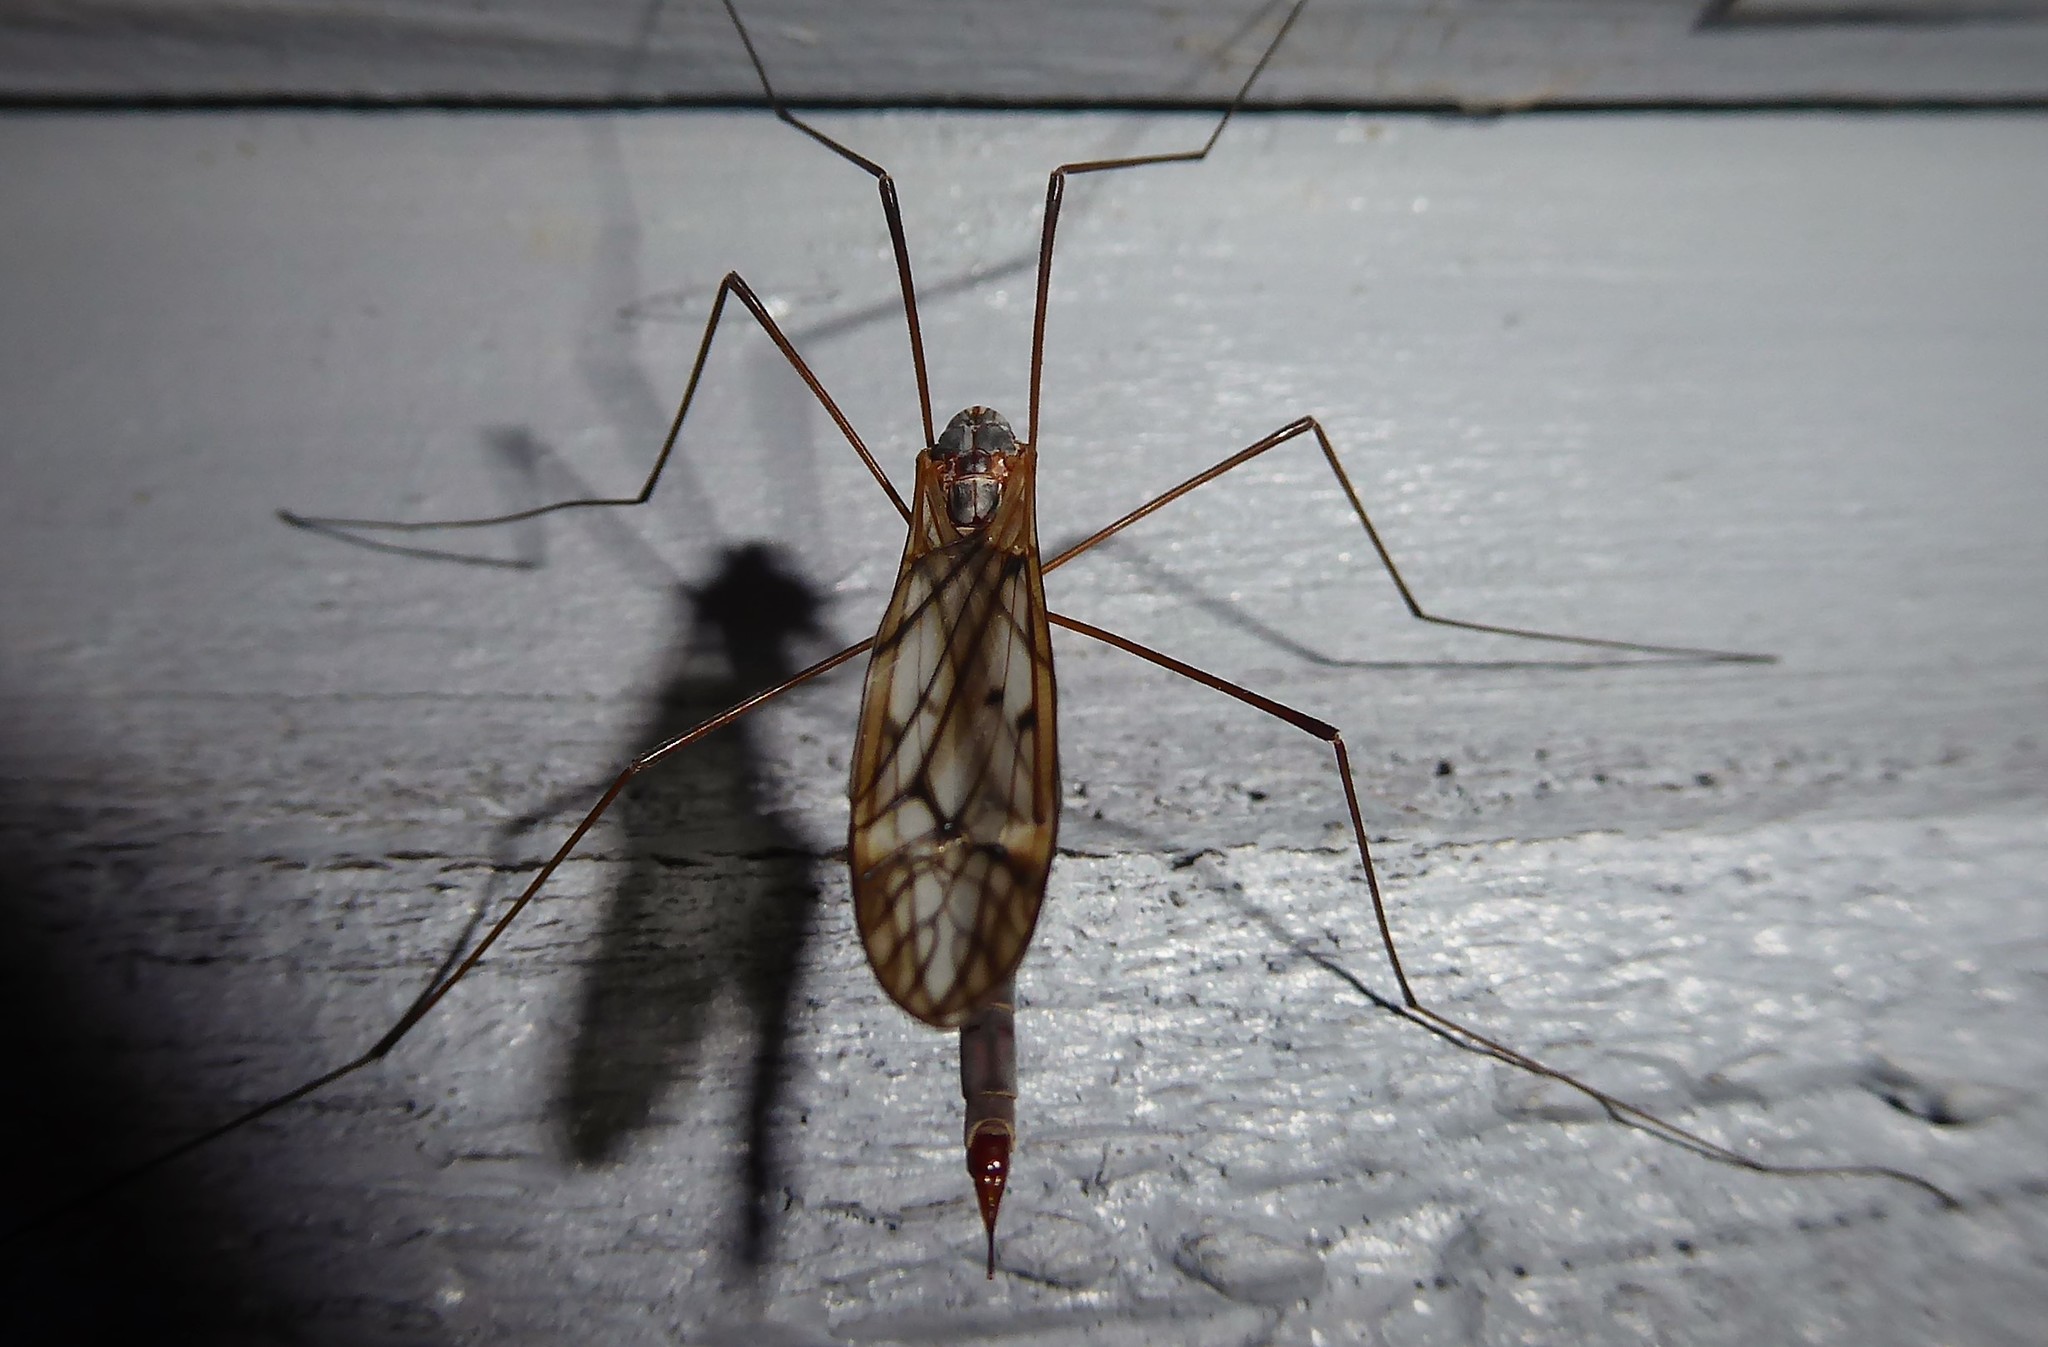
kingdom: Animalia
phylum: Arthropoda
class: Insecta
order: Diptera
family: Tipulidae
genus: Zelandotipula
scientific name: Zelandotipula novarae
